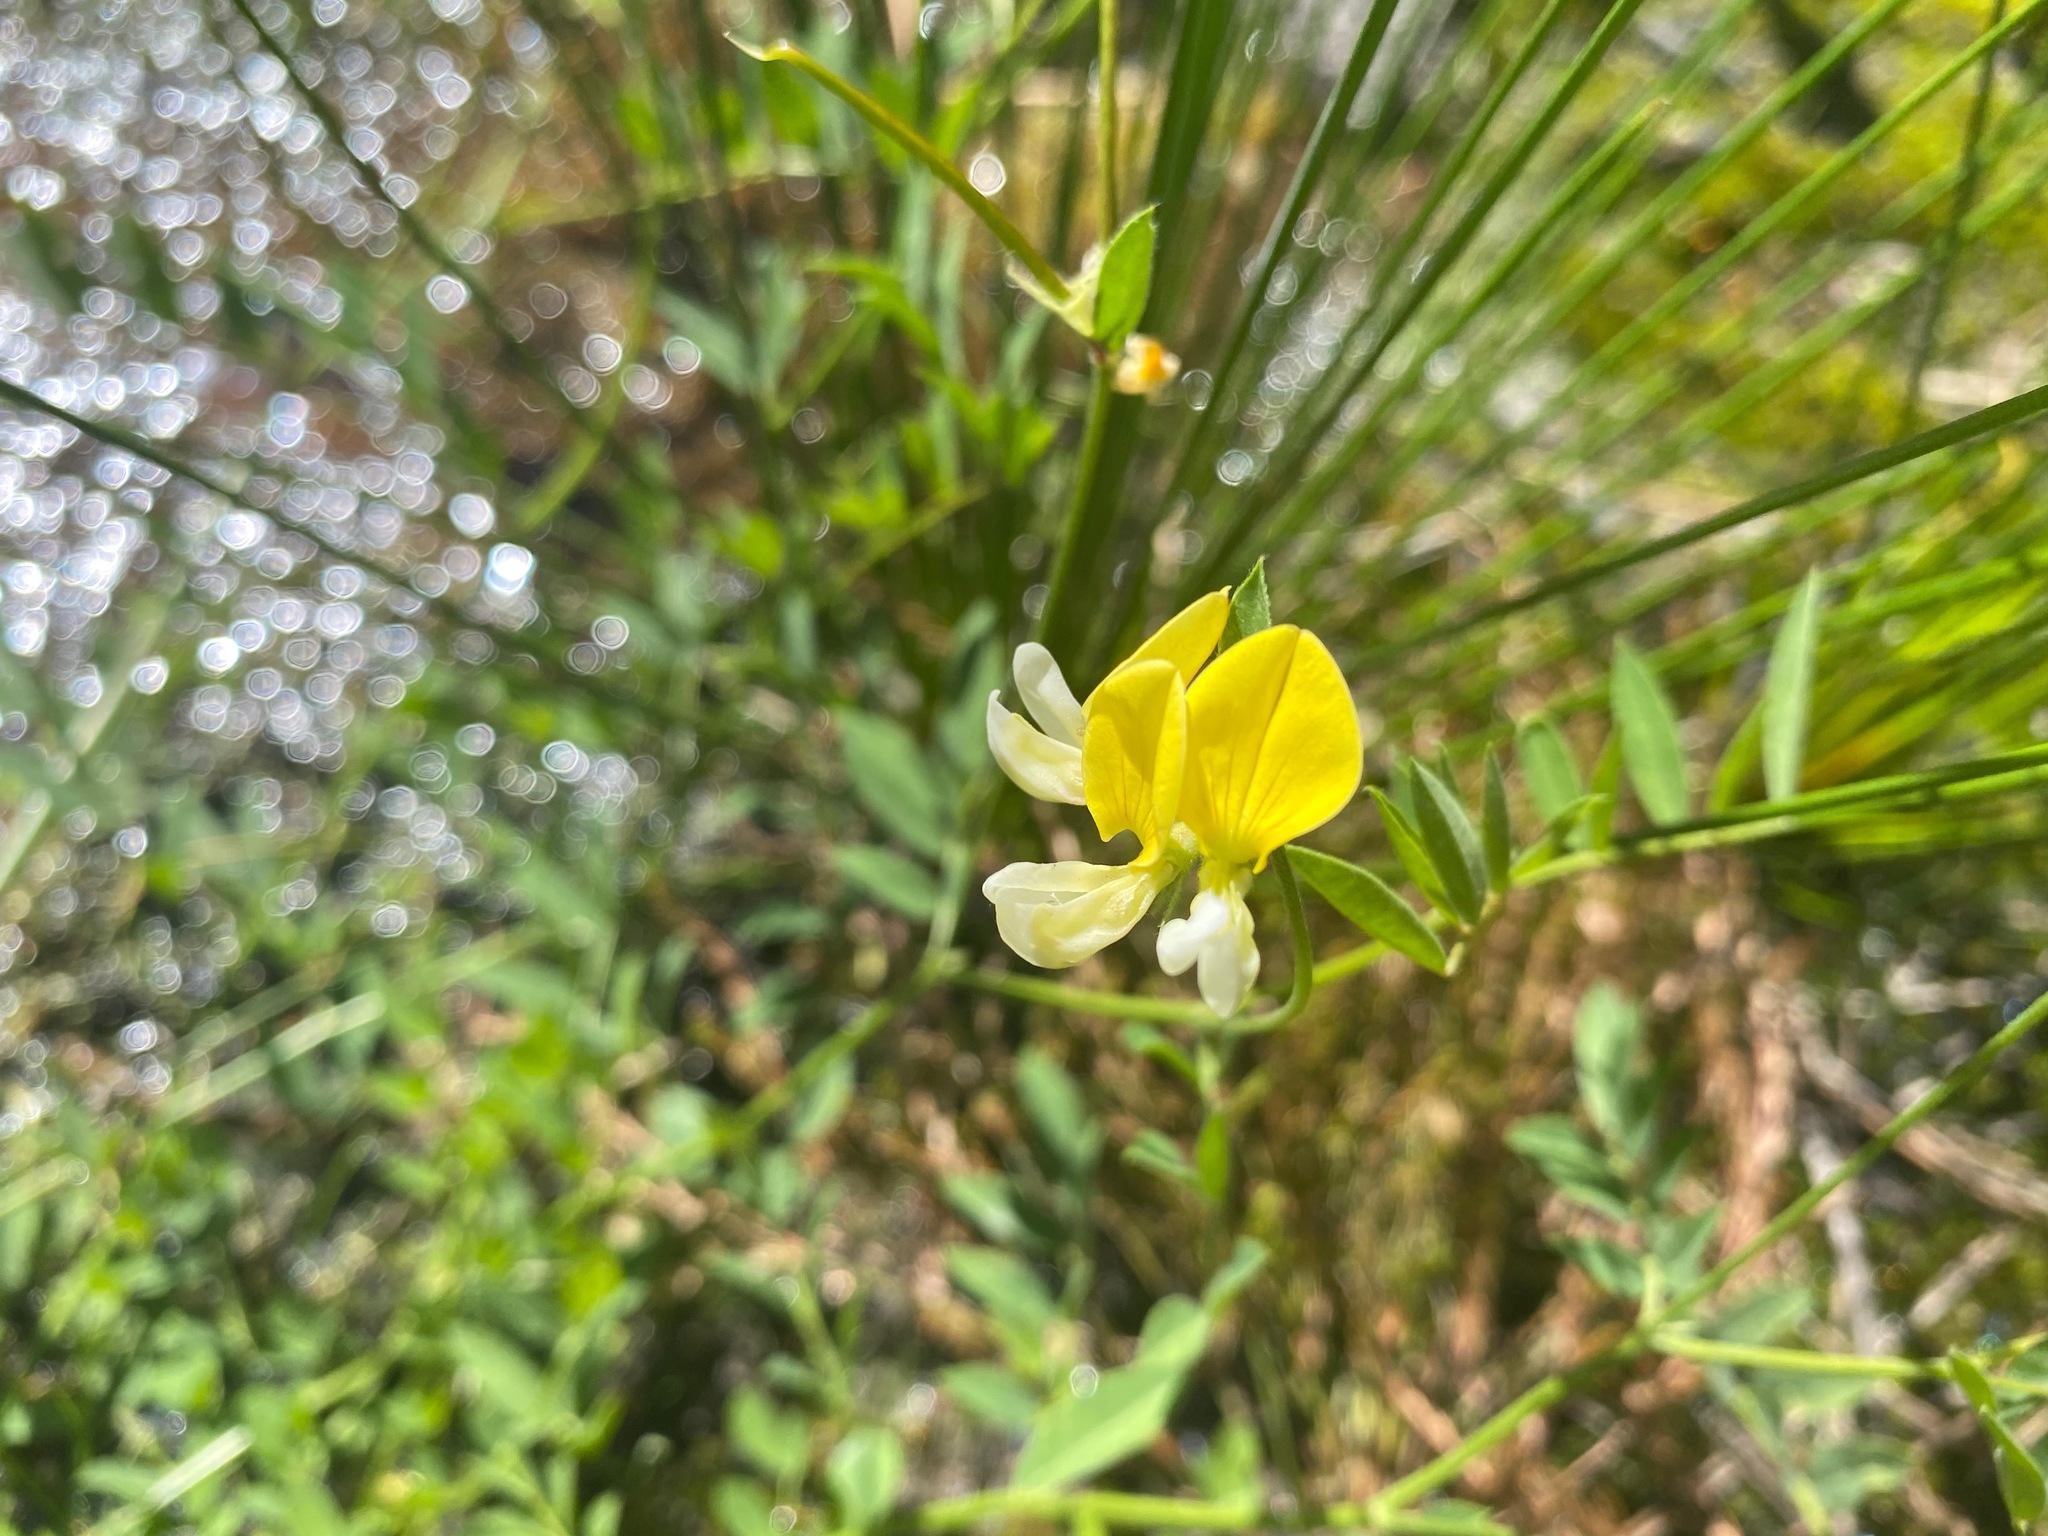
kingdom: Plantae
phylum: Tracheophyta
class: Magnoliopsida
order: Fabales
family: Fabaceae
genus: Hosackia
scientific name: Hosackia oblongifolia
